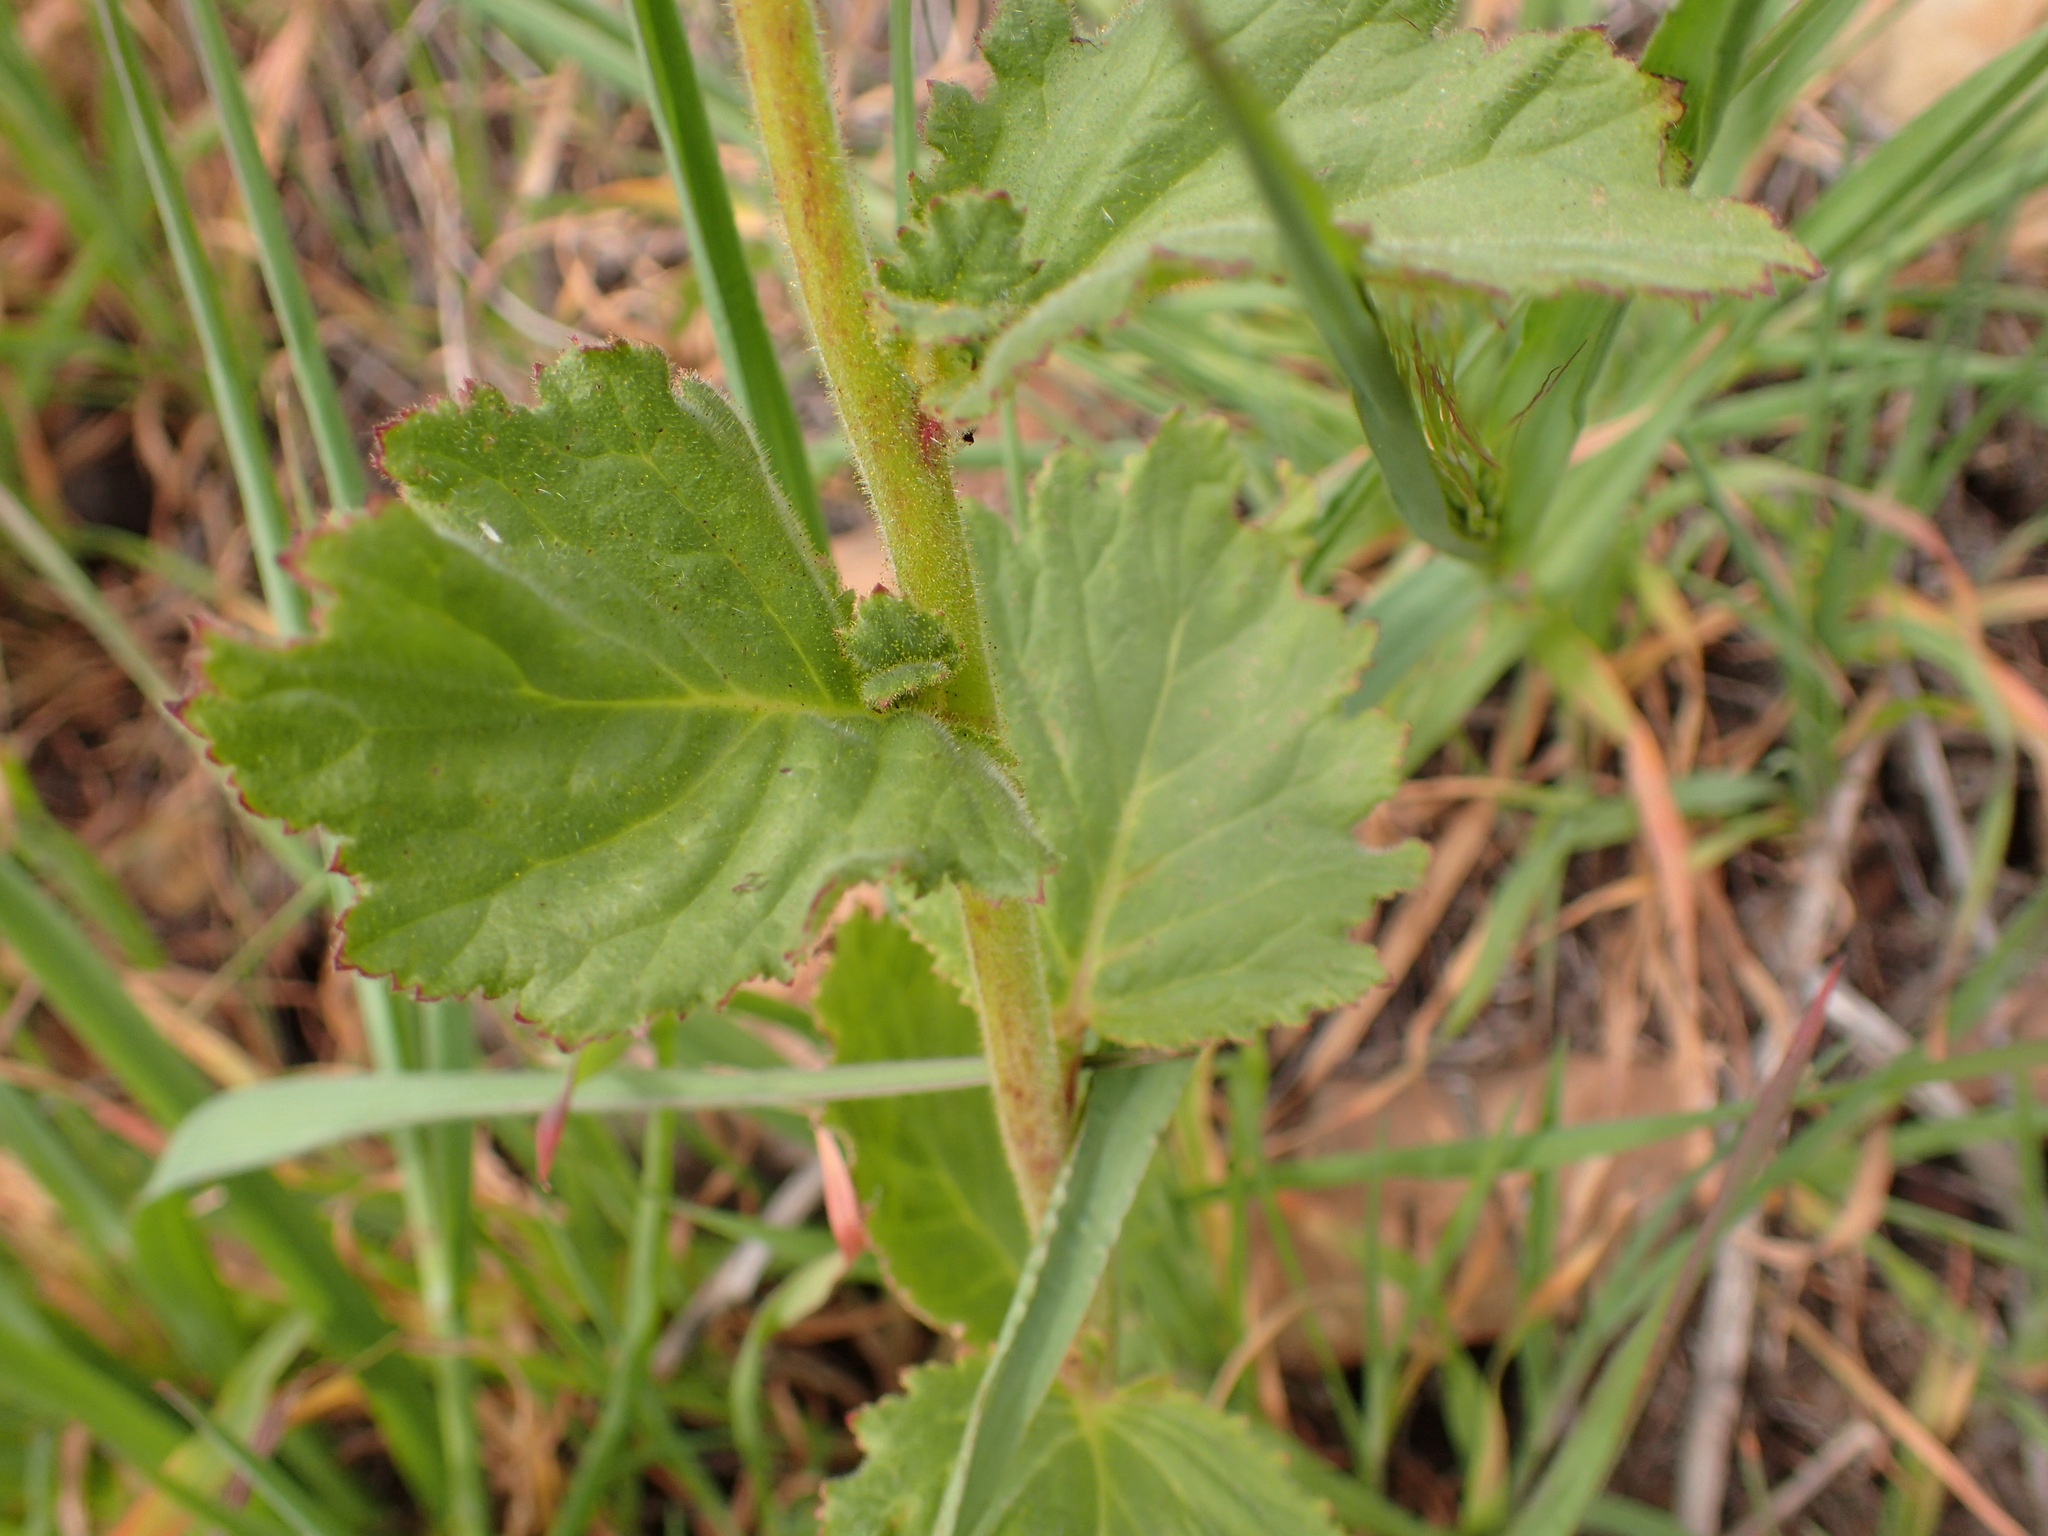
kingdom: Plantae
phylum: Tracheophyta
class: Magnoliopsida
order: Boraginales
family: Hydrophyllaceae
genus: Phacelia
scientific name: Phacelia viscida
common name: Sticky phacelia
